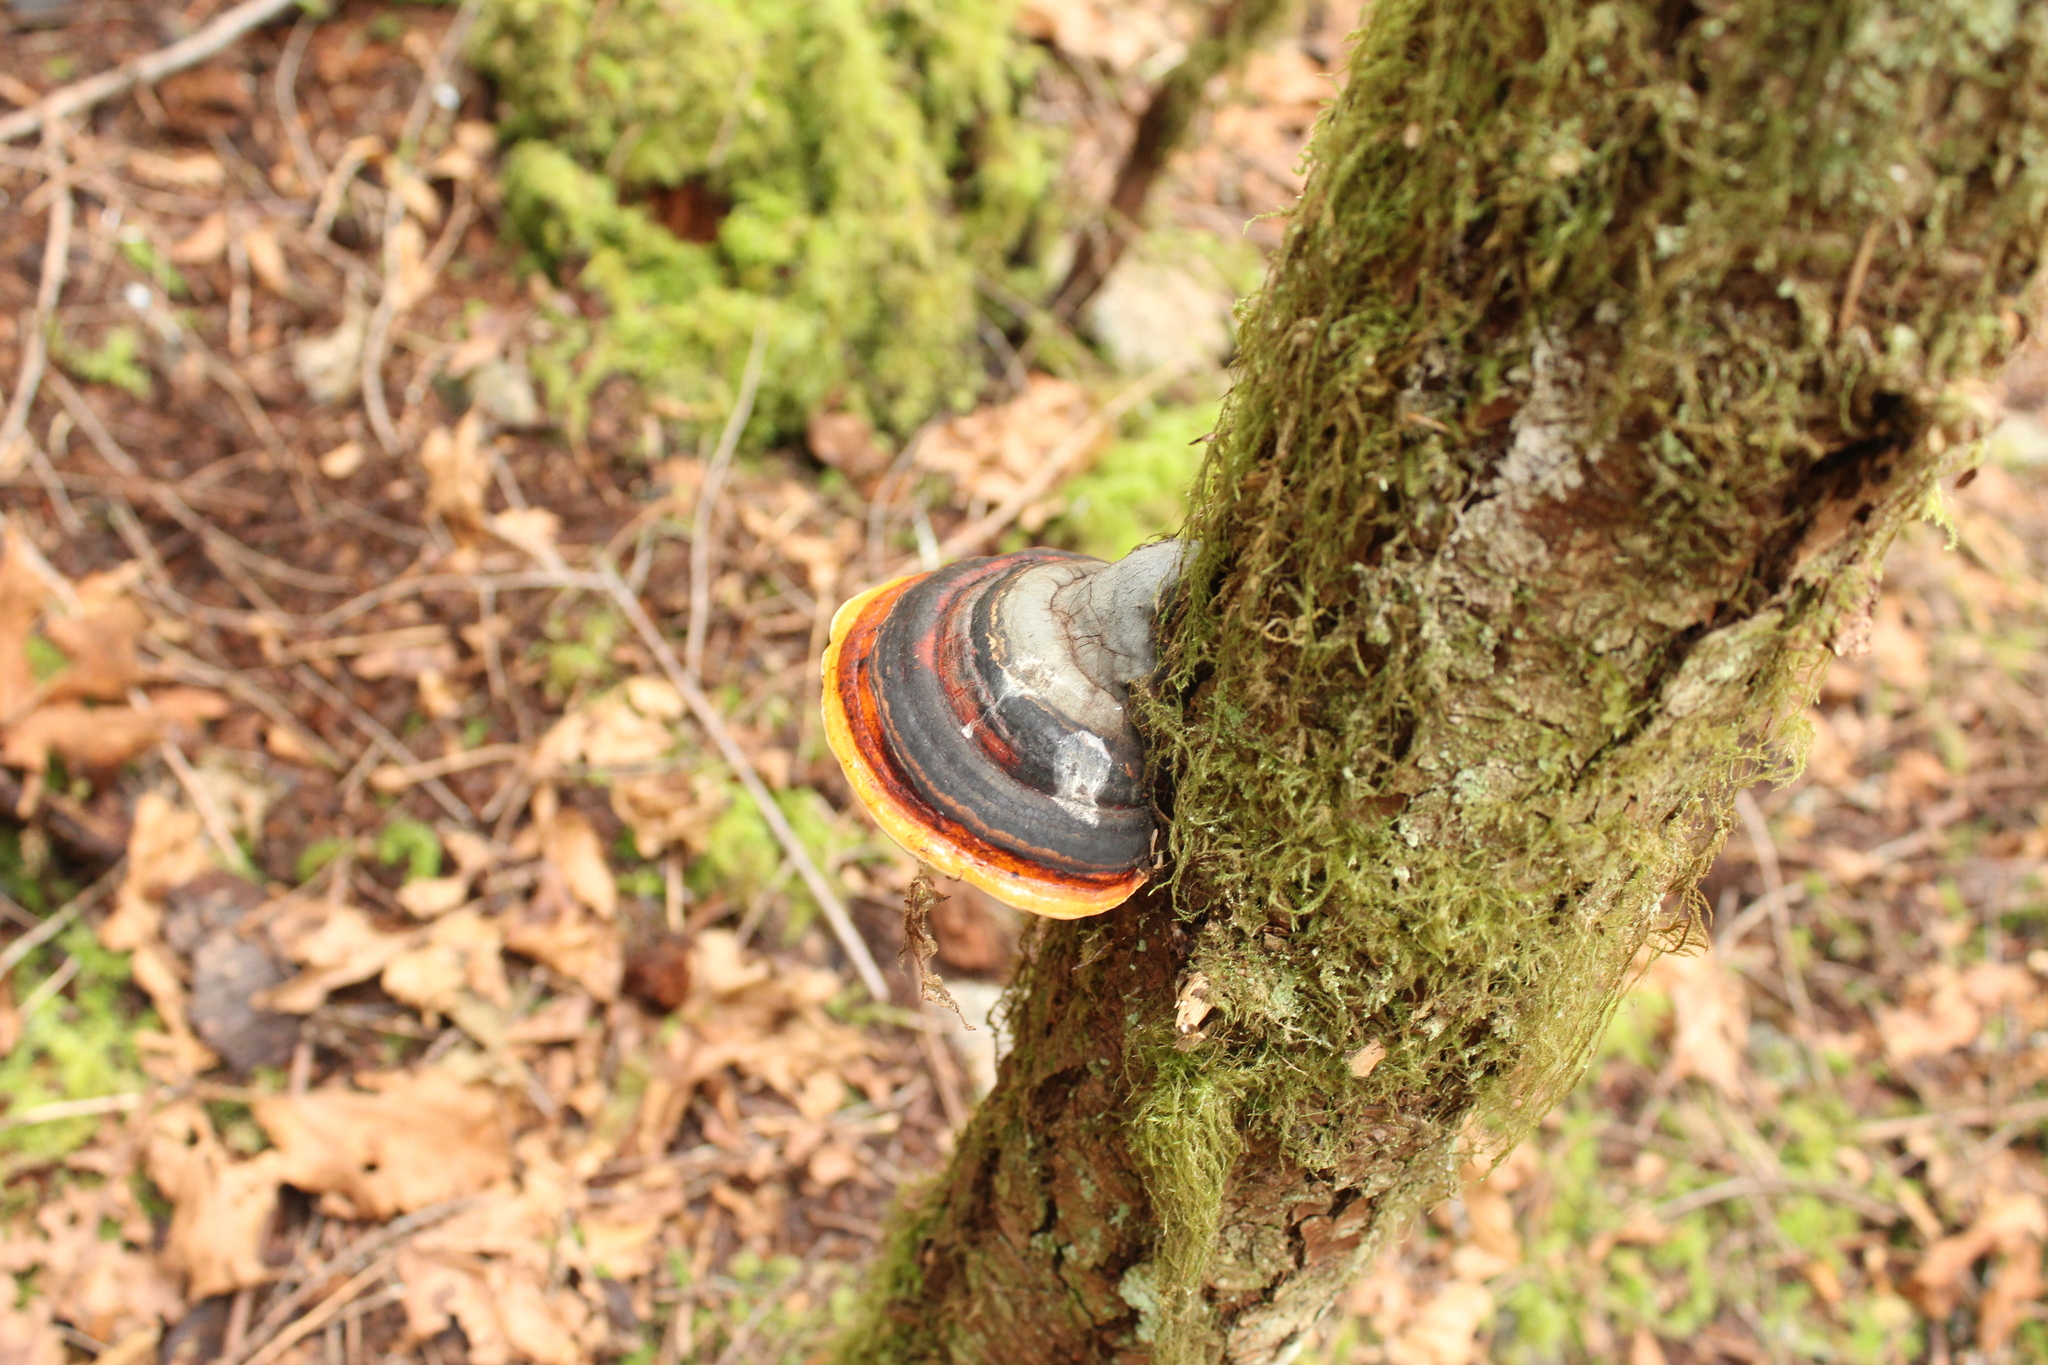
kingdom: Fungi
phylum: Basidiomycota
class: Agaricomycetes
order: Polyporales
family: Fomitopsidaceae
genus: Fomitopsis
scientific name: Fomitopsis mounceae
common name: Northern red belt
